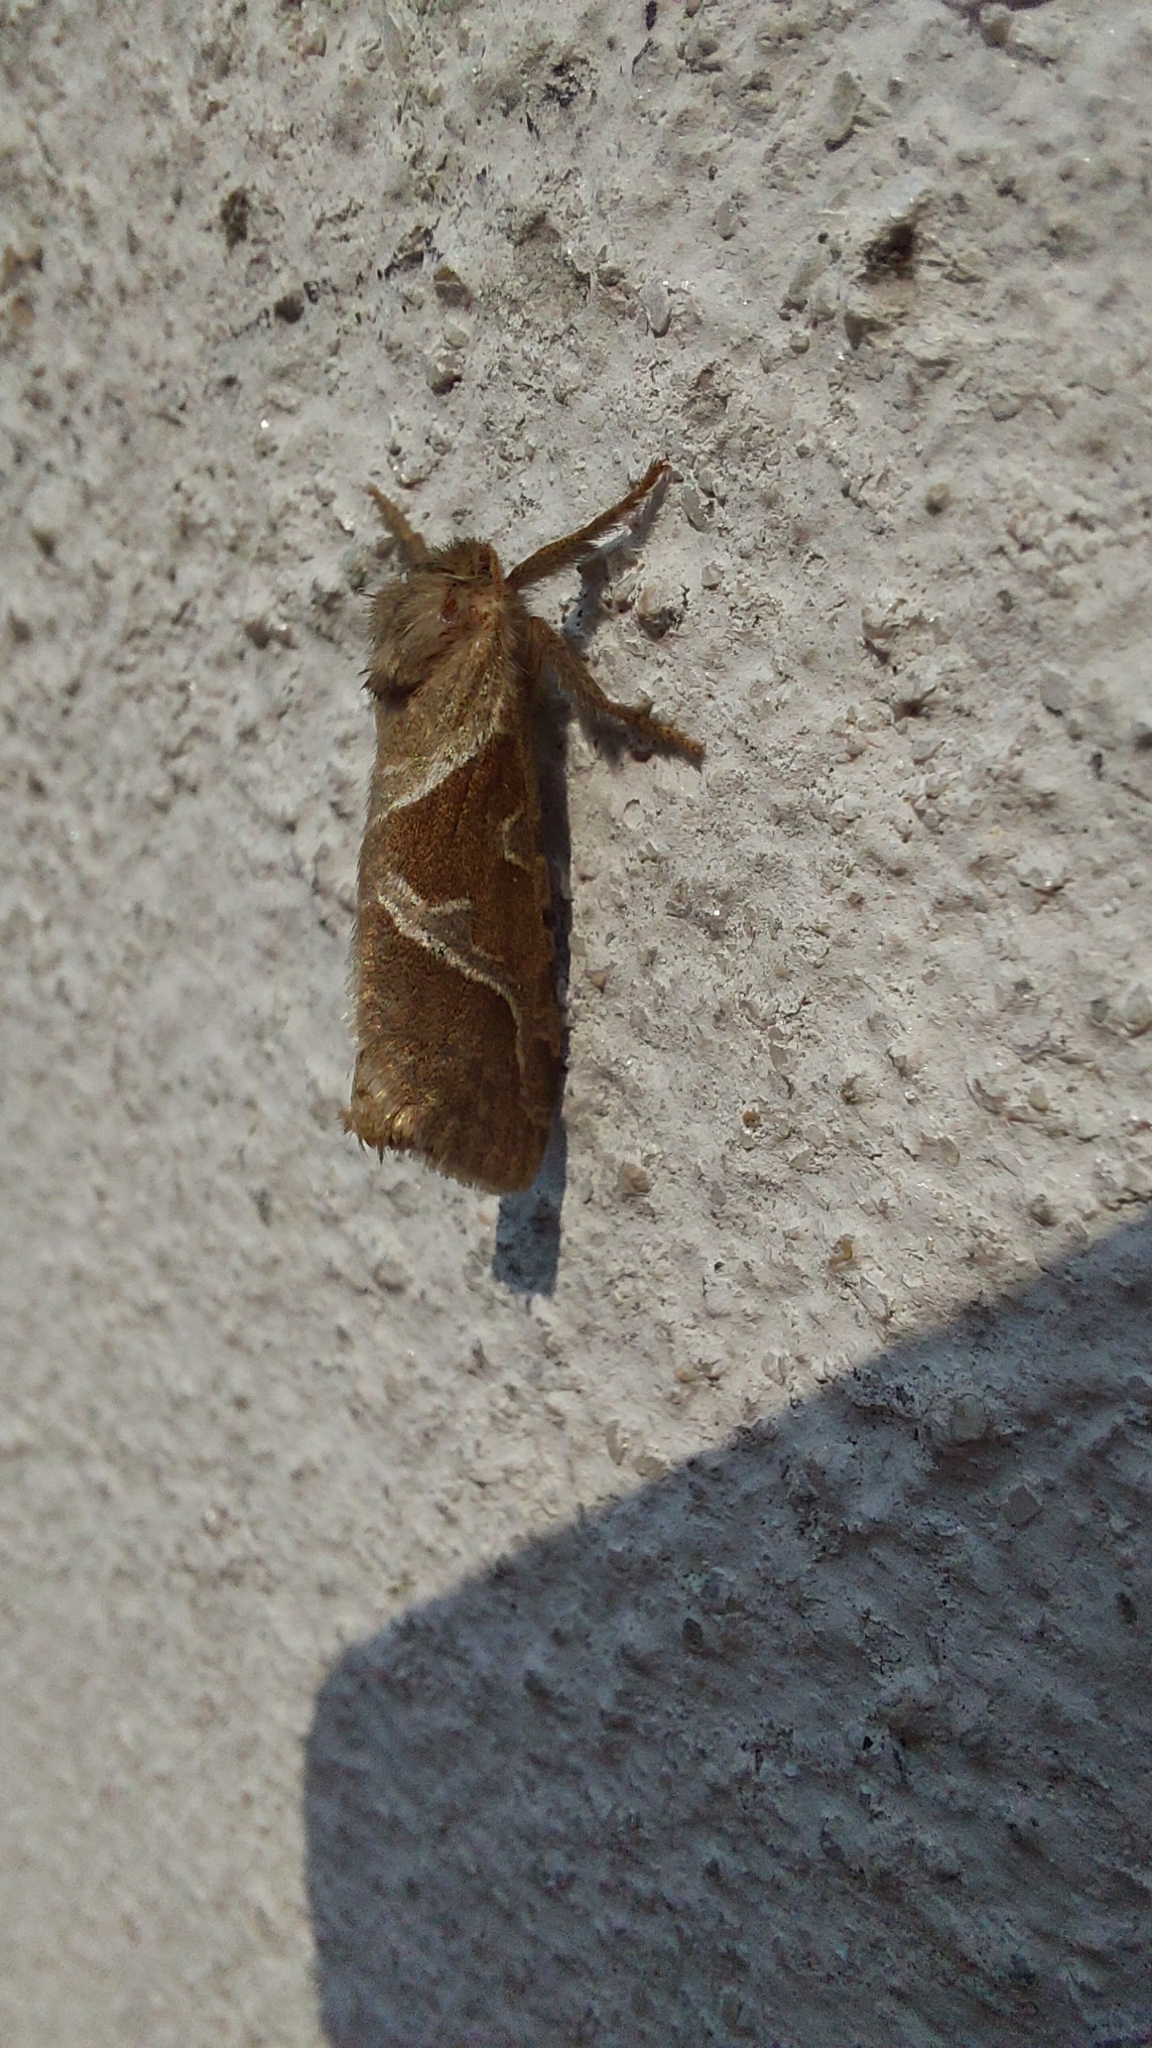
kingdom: Animalia
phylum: Arthropoda
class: Insecta
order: Lepidoptera
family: Hepialidae
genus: Triodia
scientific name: Triodia sylvina
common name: Orange swift
